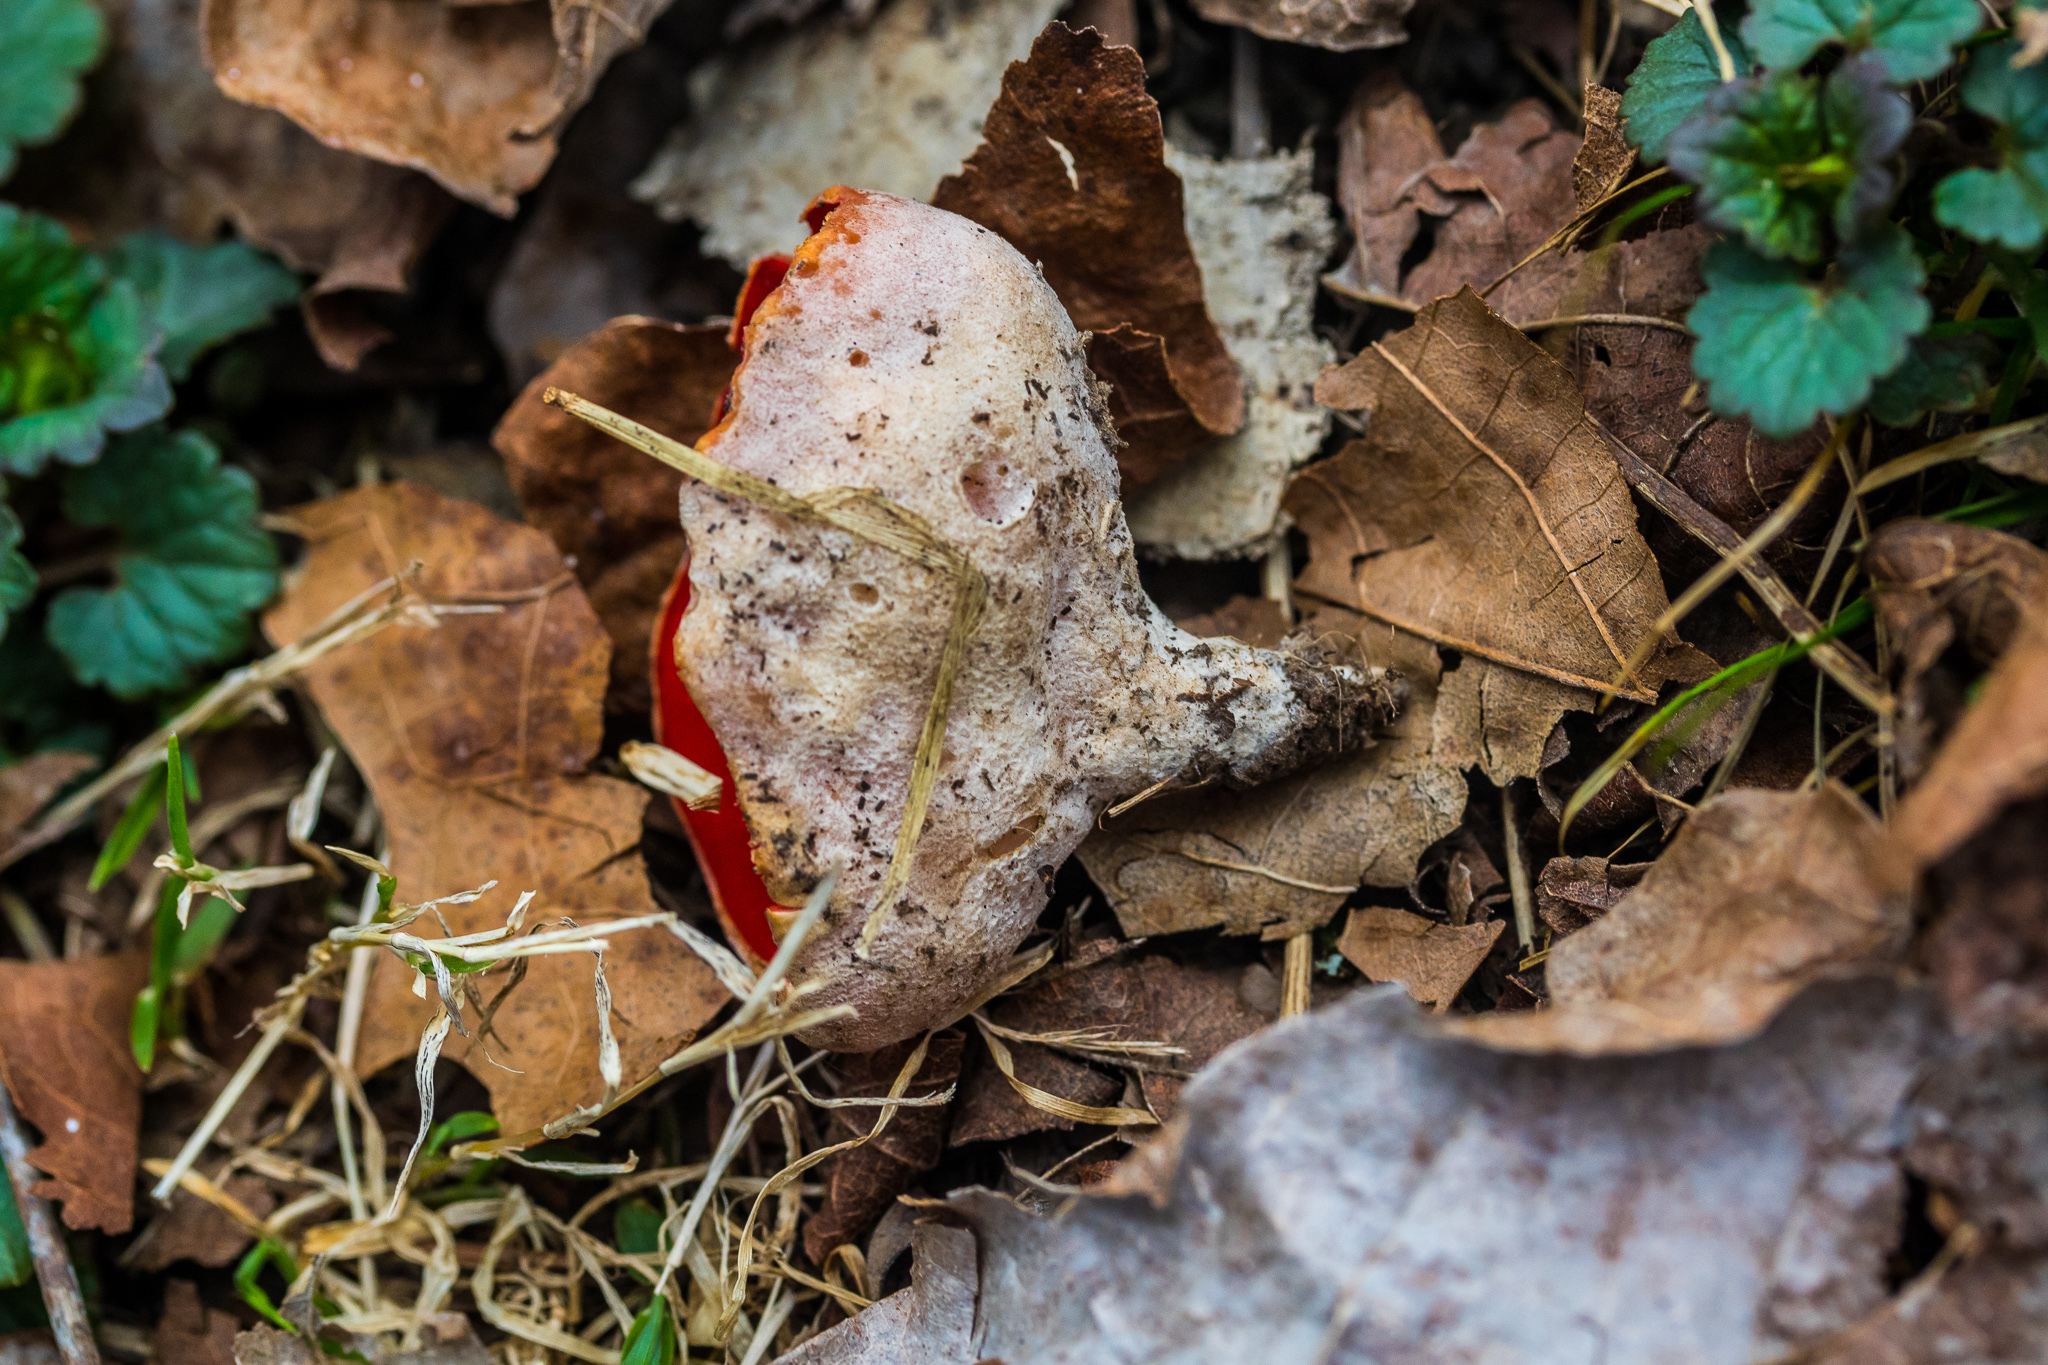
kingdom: Fungi
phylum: Ascomycota
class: Pezizomycetes
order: Pezizales
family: Sarcoscyphaceae
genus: Sarcoscypha
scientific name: Sarcoscypha austriaca
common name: Scarlet elfcup
